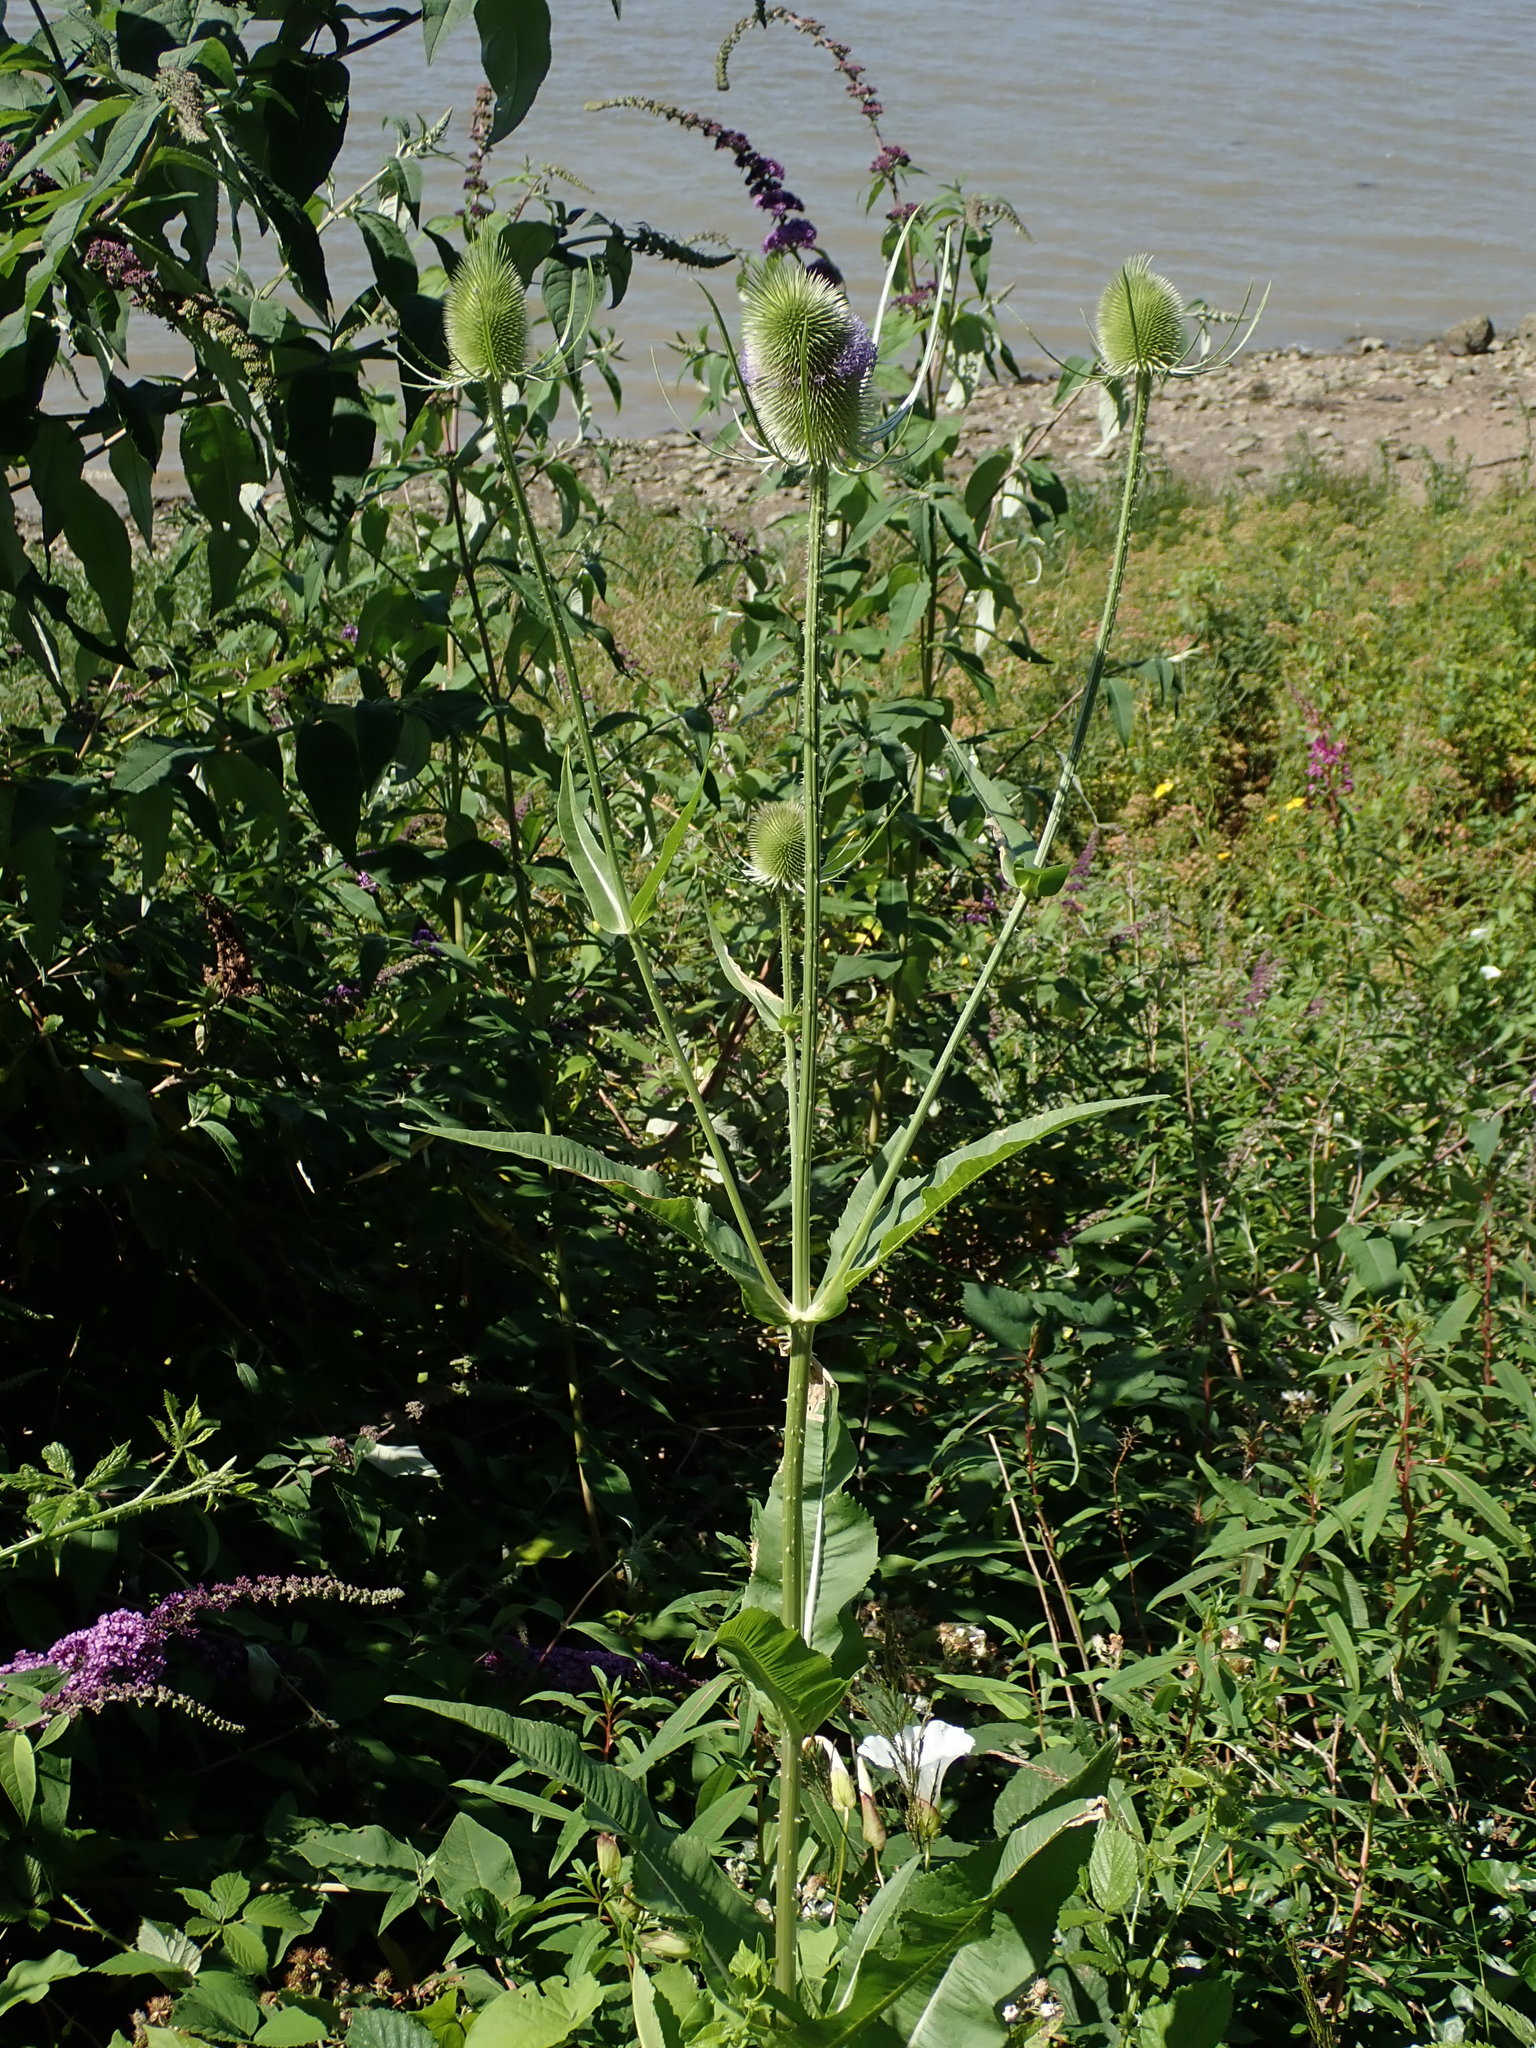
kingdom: Plantae
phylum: Tracheophyta
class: Magnoliopsida
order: Dipsacales
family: Caprifoliaceae
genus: Dipsacus
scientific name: Dipsacus fullonum
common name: Teasel
